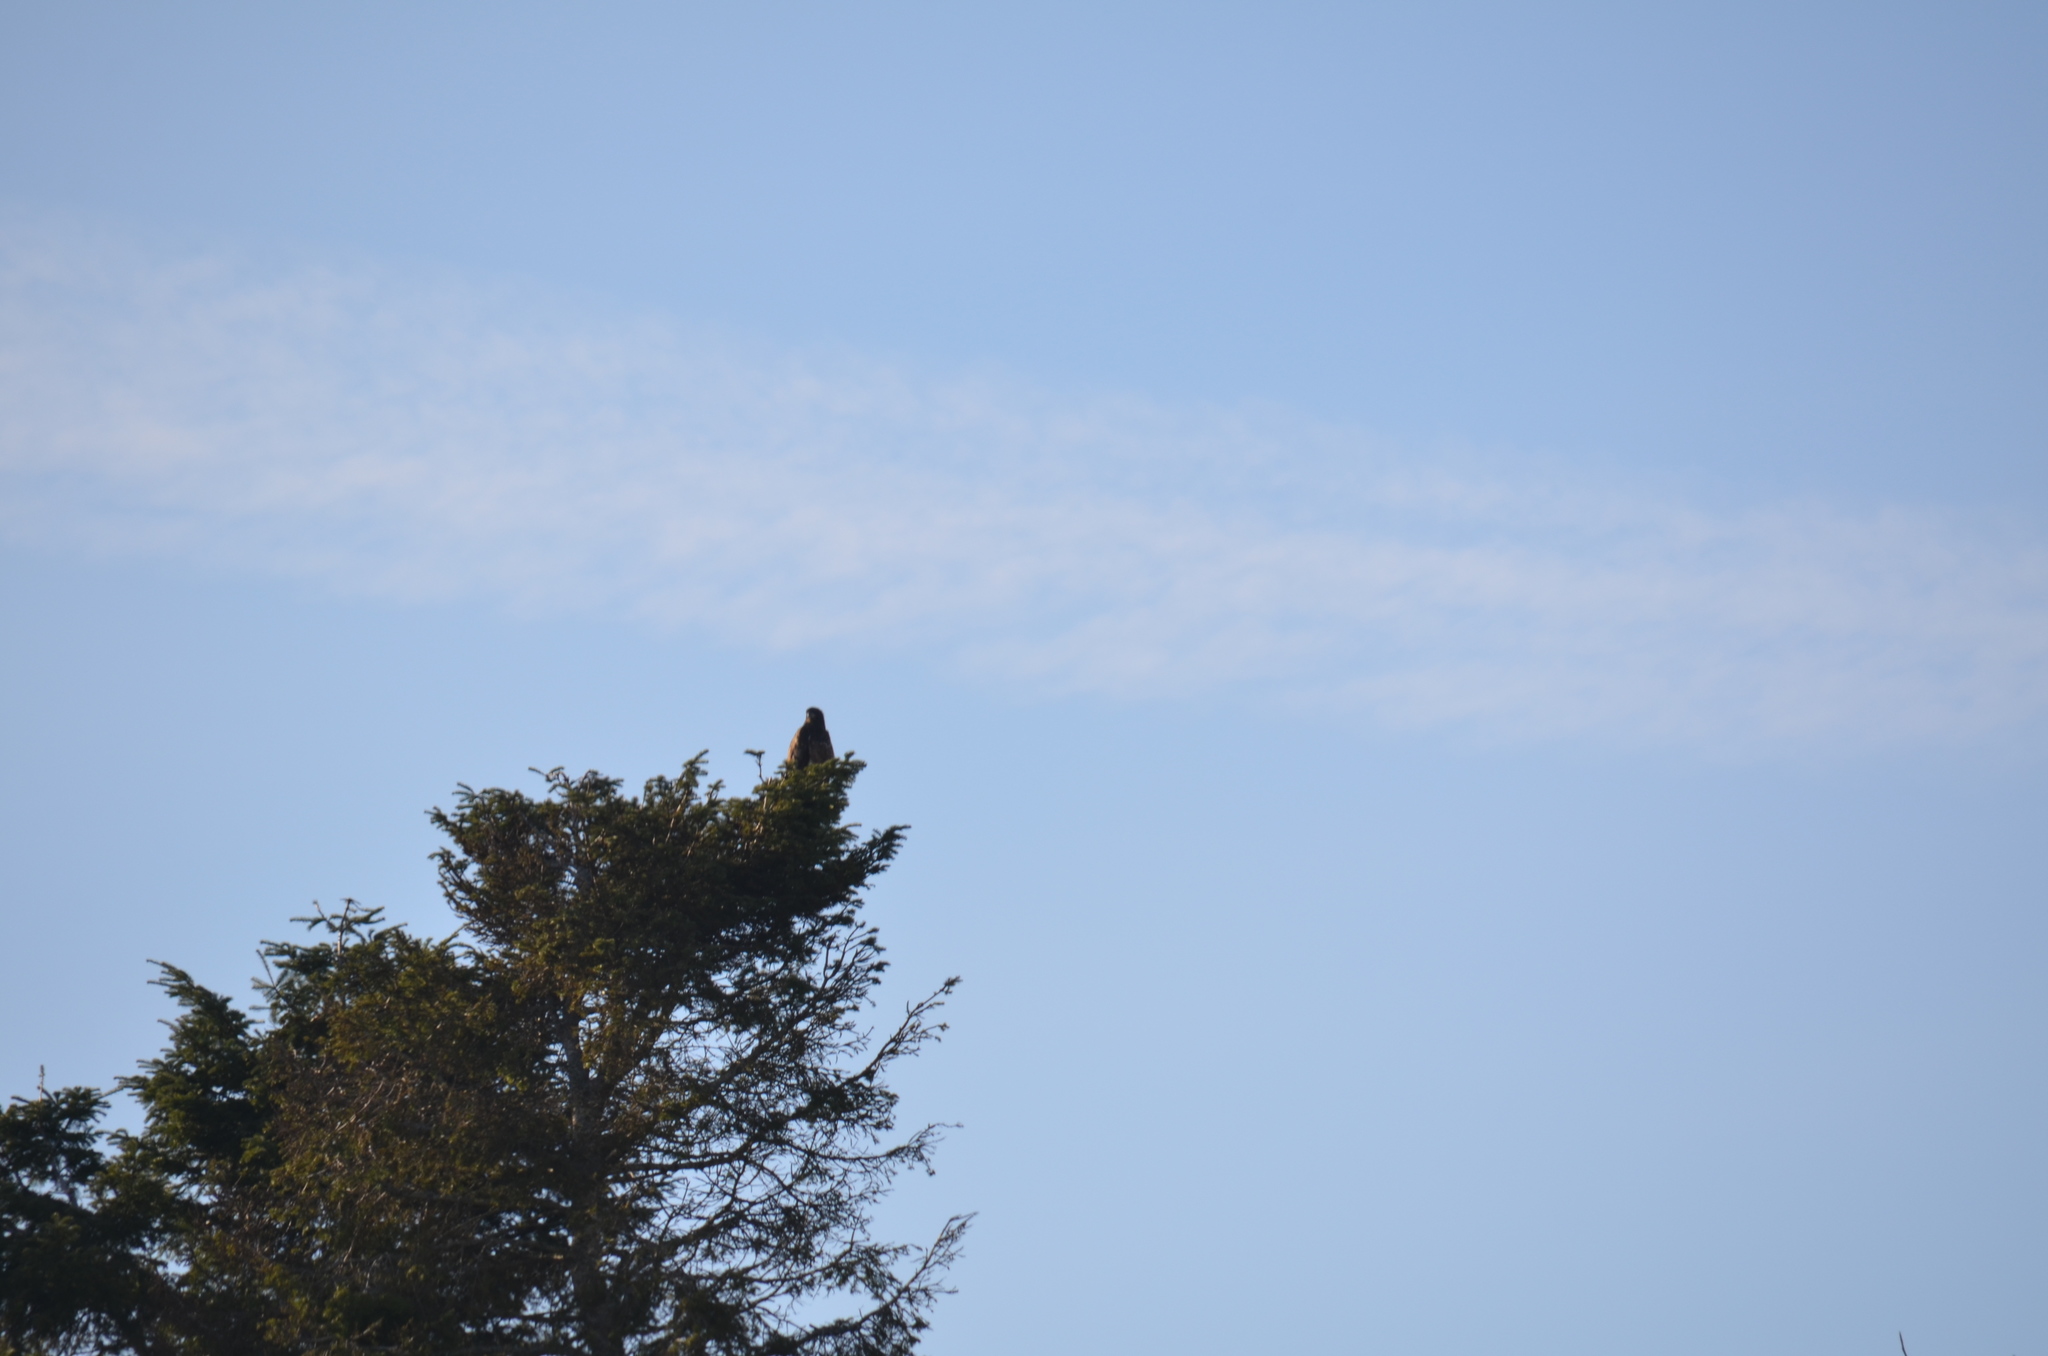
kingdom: Animalia
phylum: Chordata
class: Aves
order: Accipitriformes
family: Accipitridae
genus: Haliaeetus
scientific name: Haliaeetus leucocephalus
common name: Bald eagle
